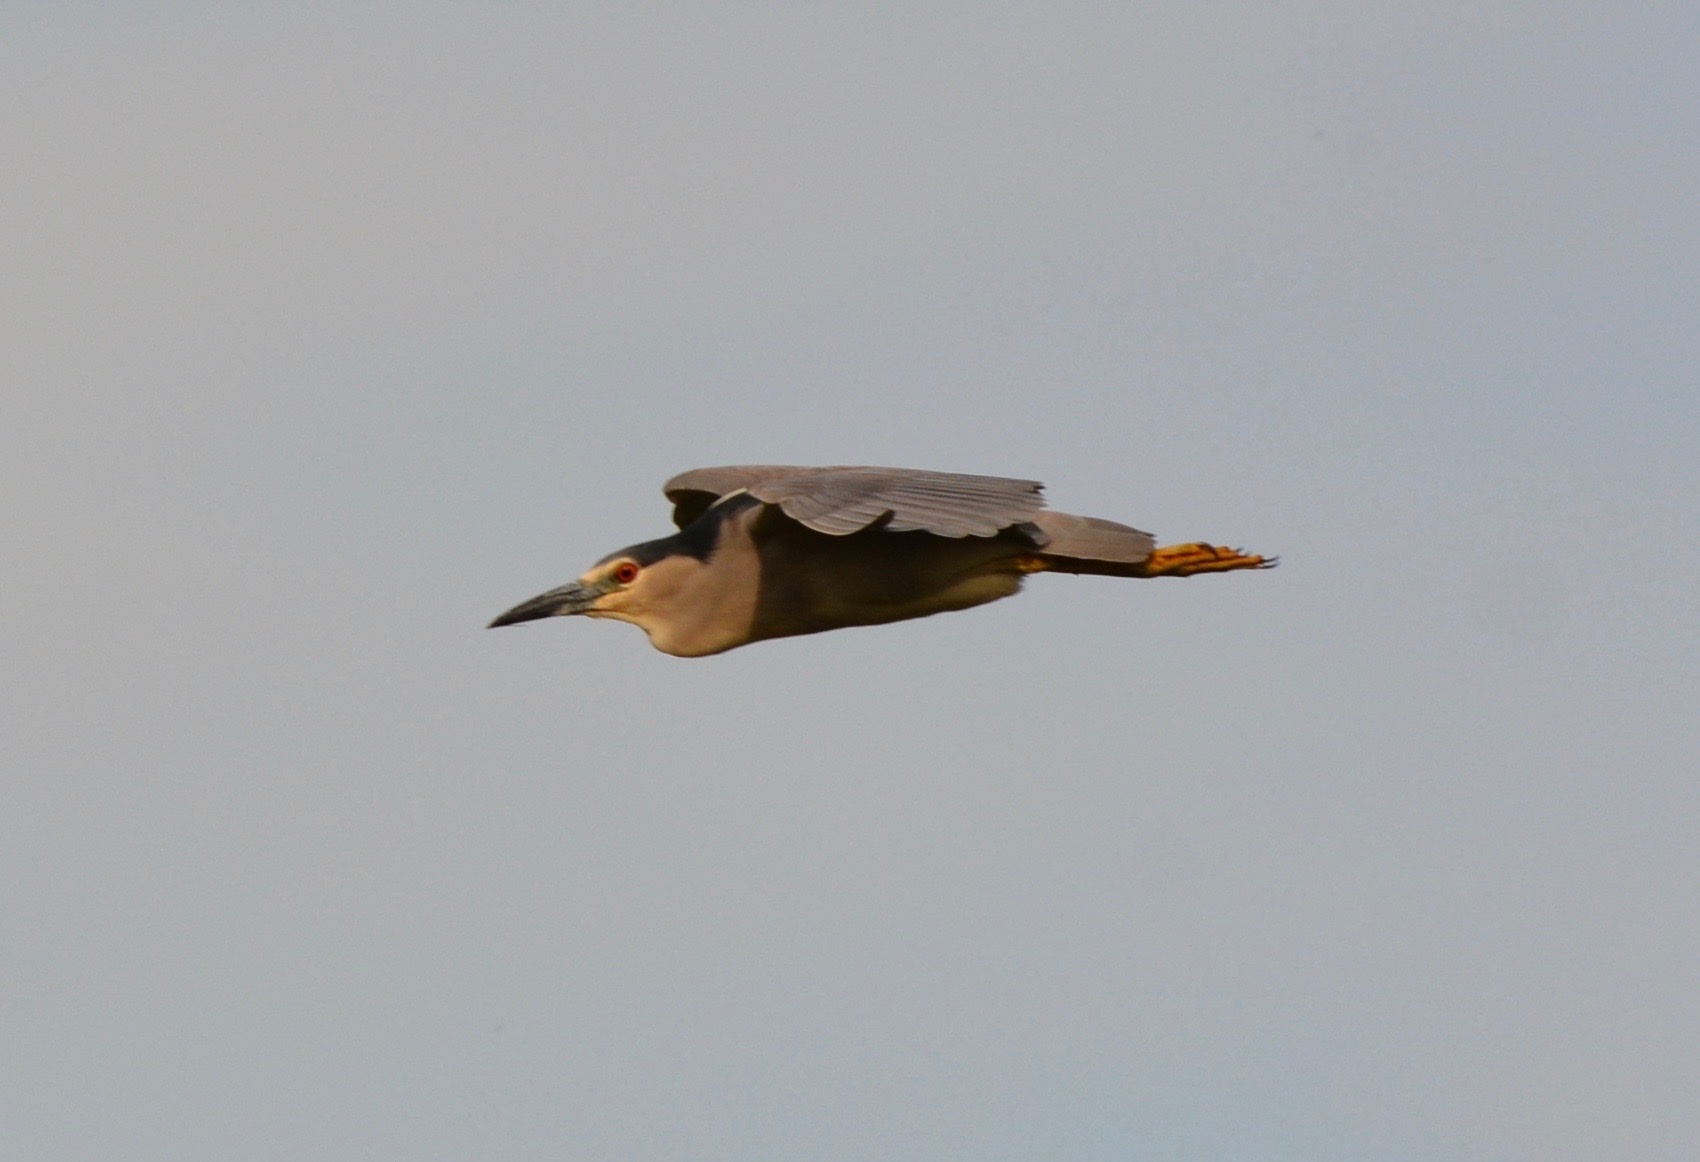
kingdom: Animalia
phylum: Chordata
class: Aves
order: Pelecaniformes
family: Ardeidae
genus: Nycticorax
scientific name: Nycticorax nycticorax
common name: Black-crowned night heron
